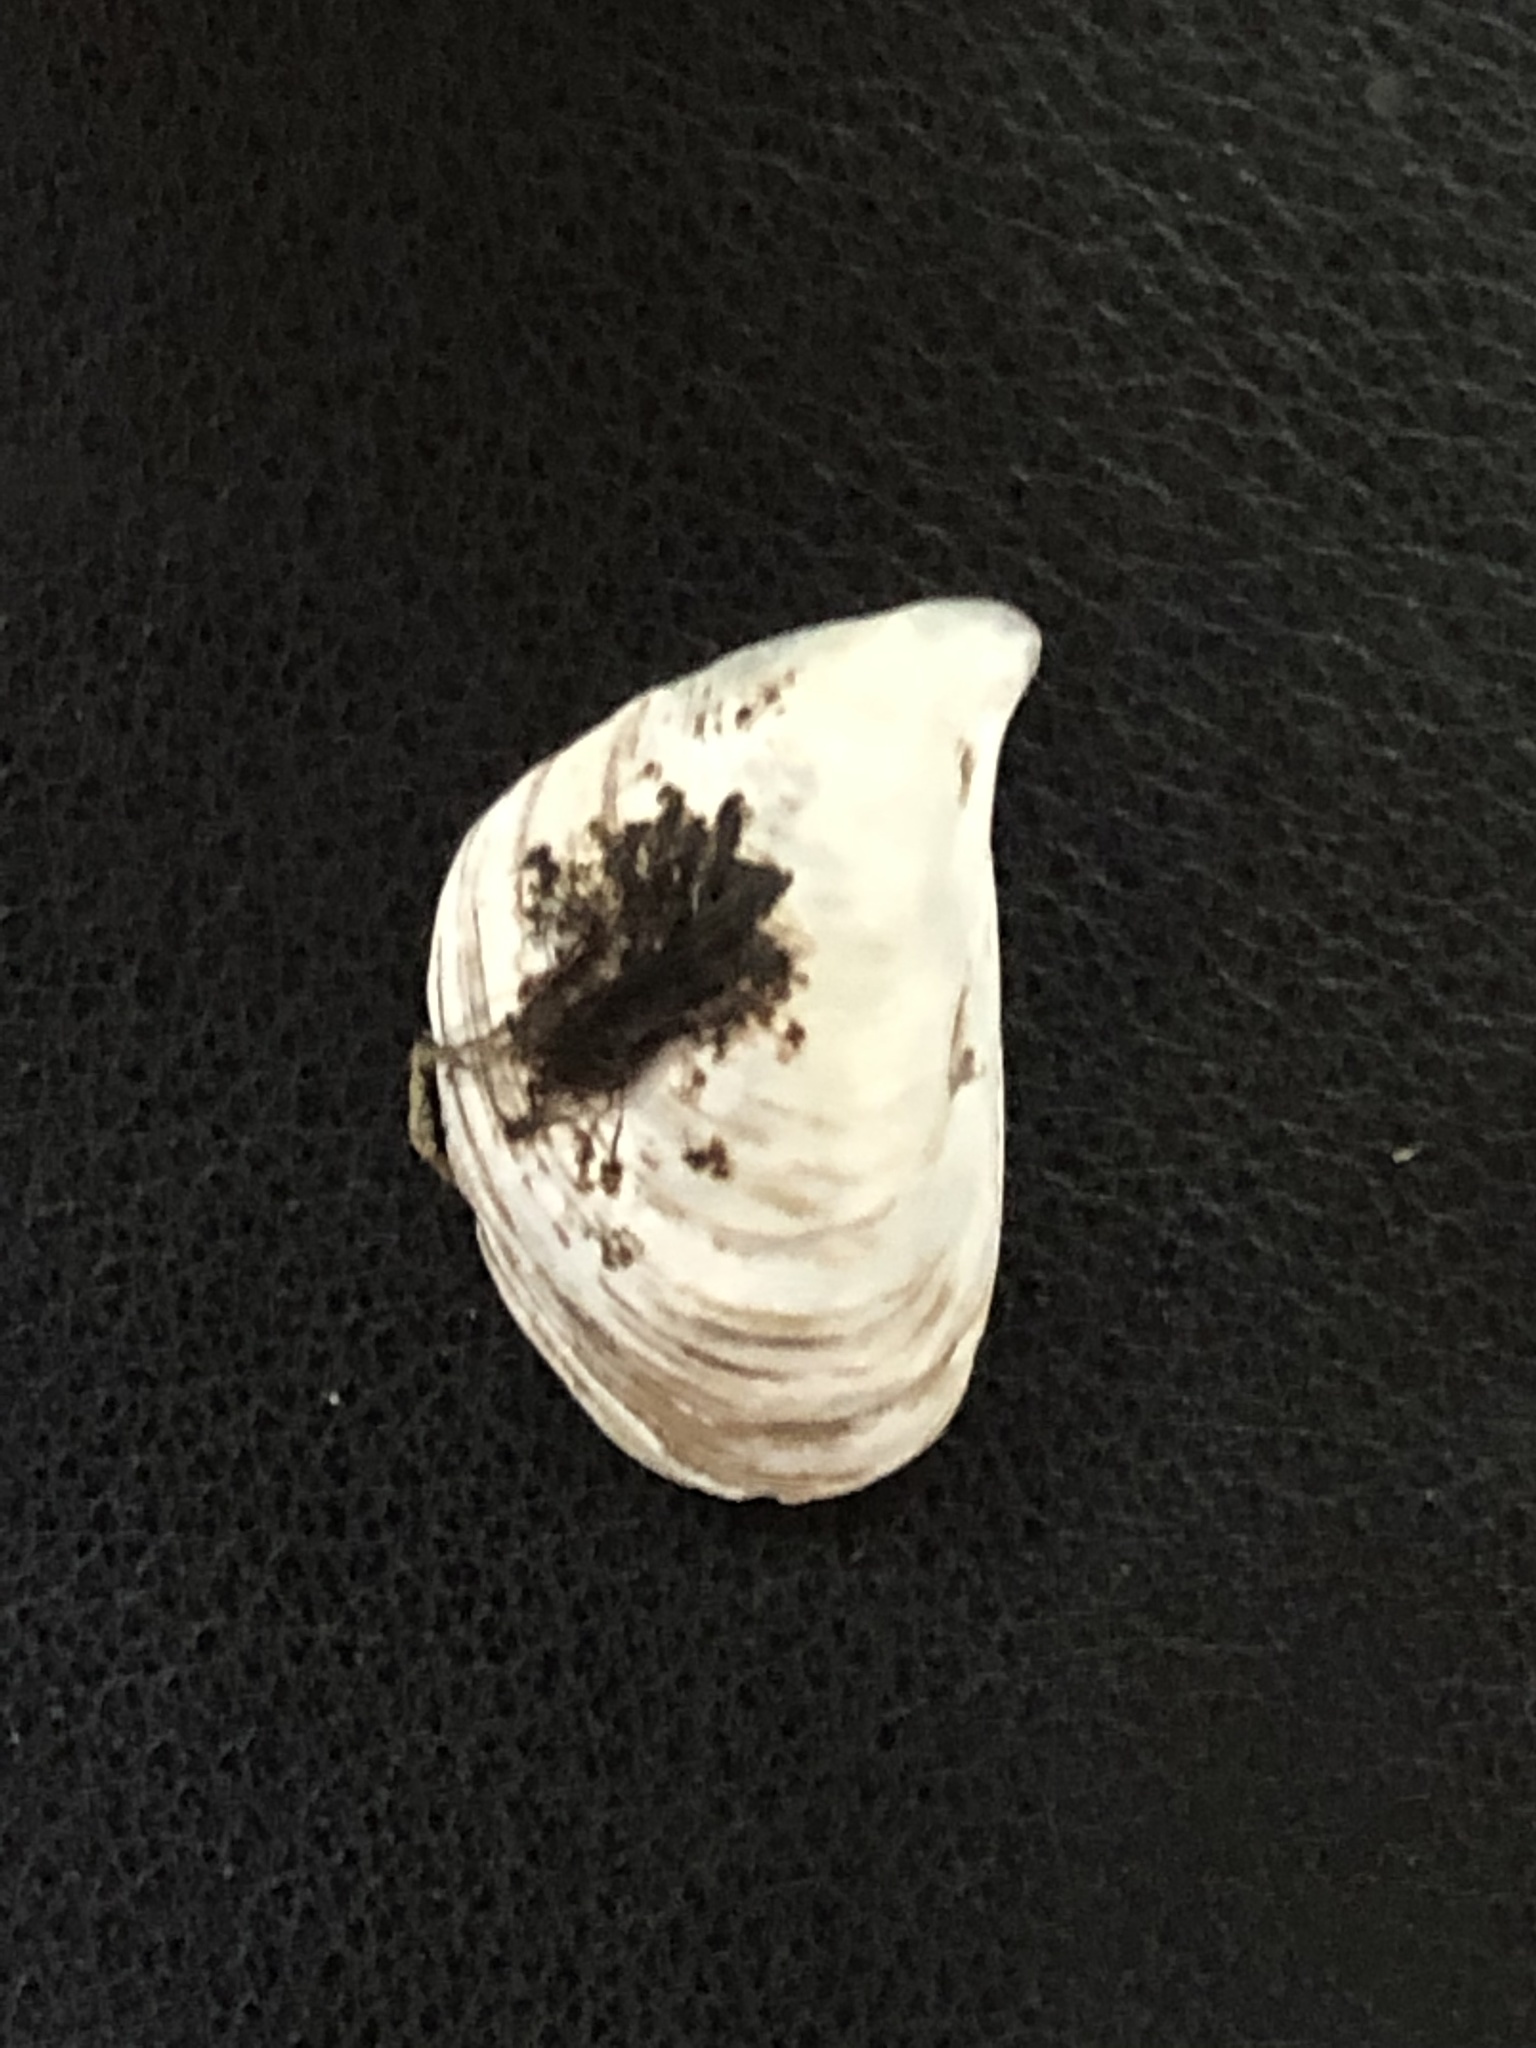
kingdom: Animalia
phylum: Mollusca
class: Bivalvia
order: Myida
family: Dreissenidae
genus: Dreissena
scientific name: Dreissena bugensis
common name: Quagga mussel
